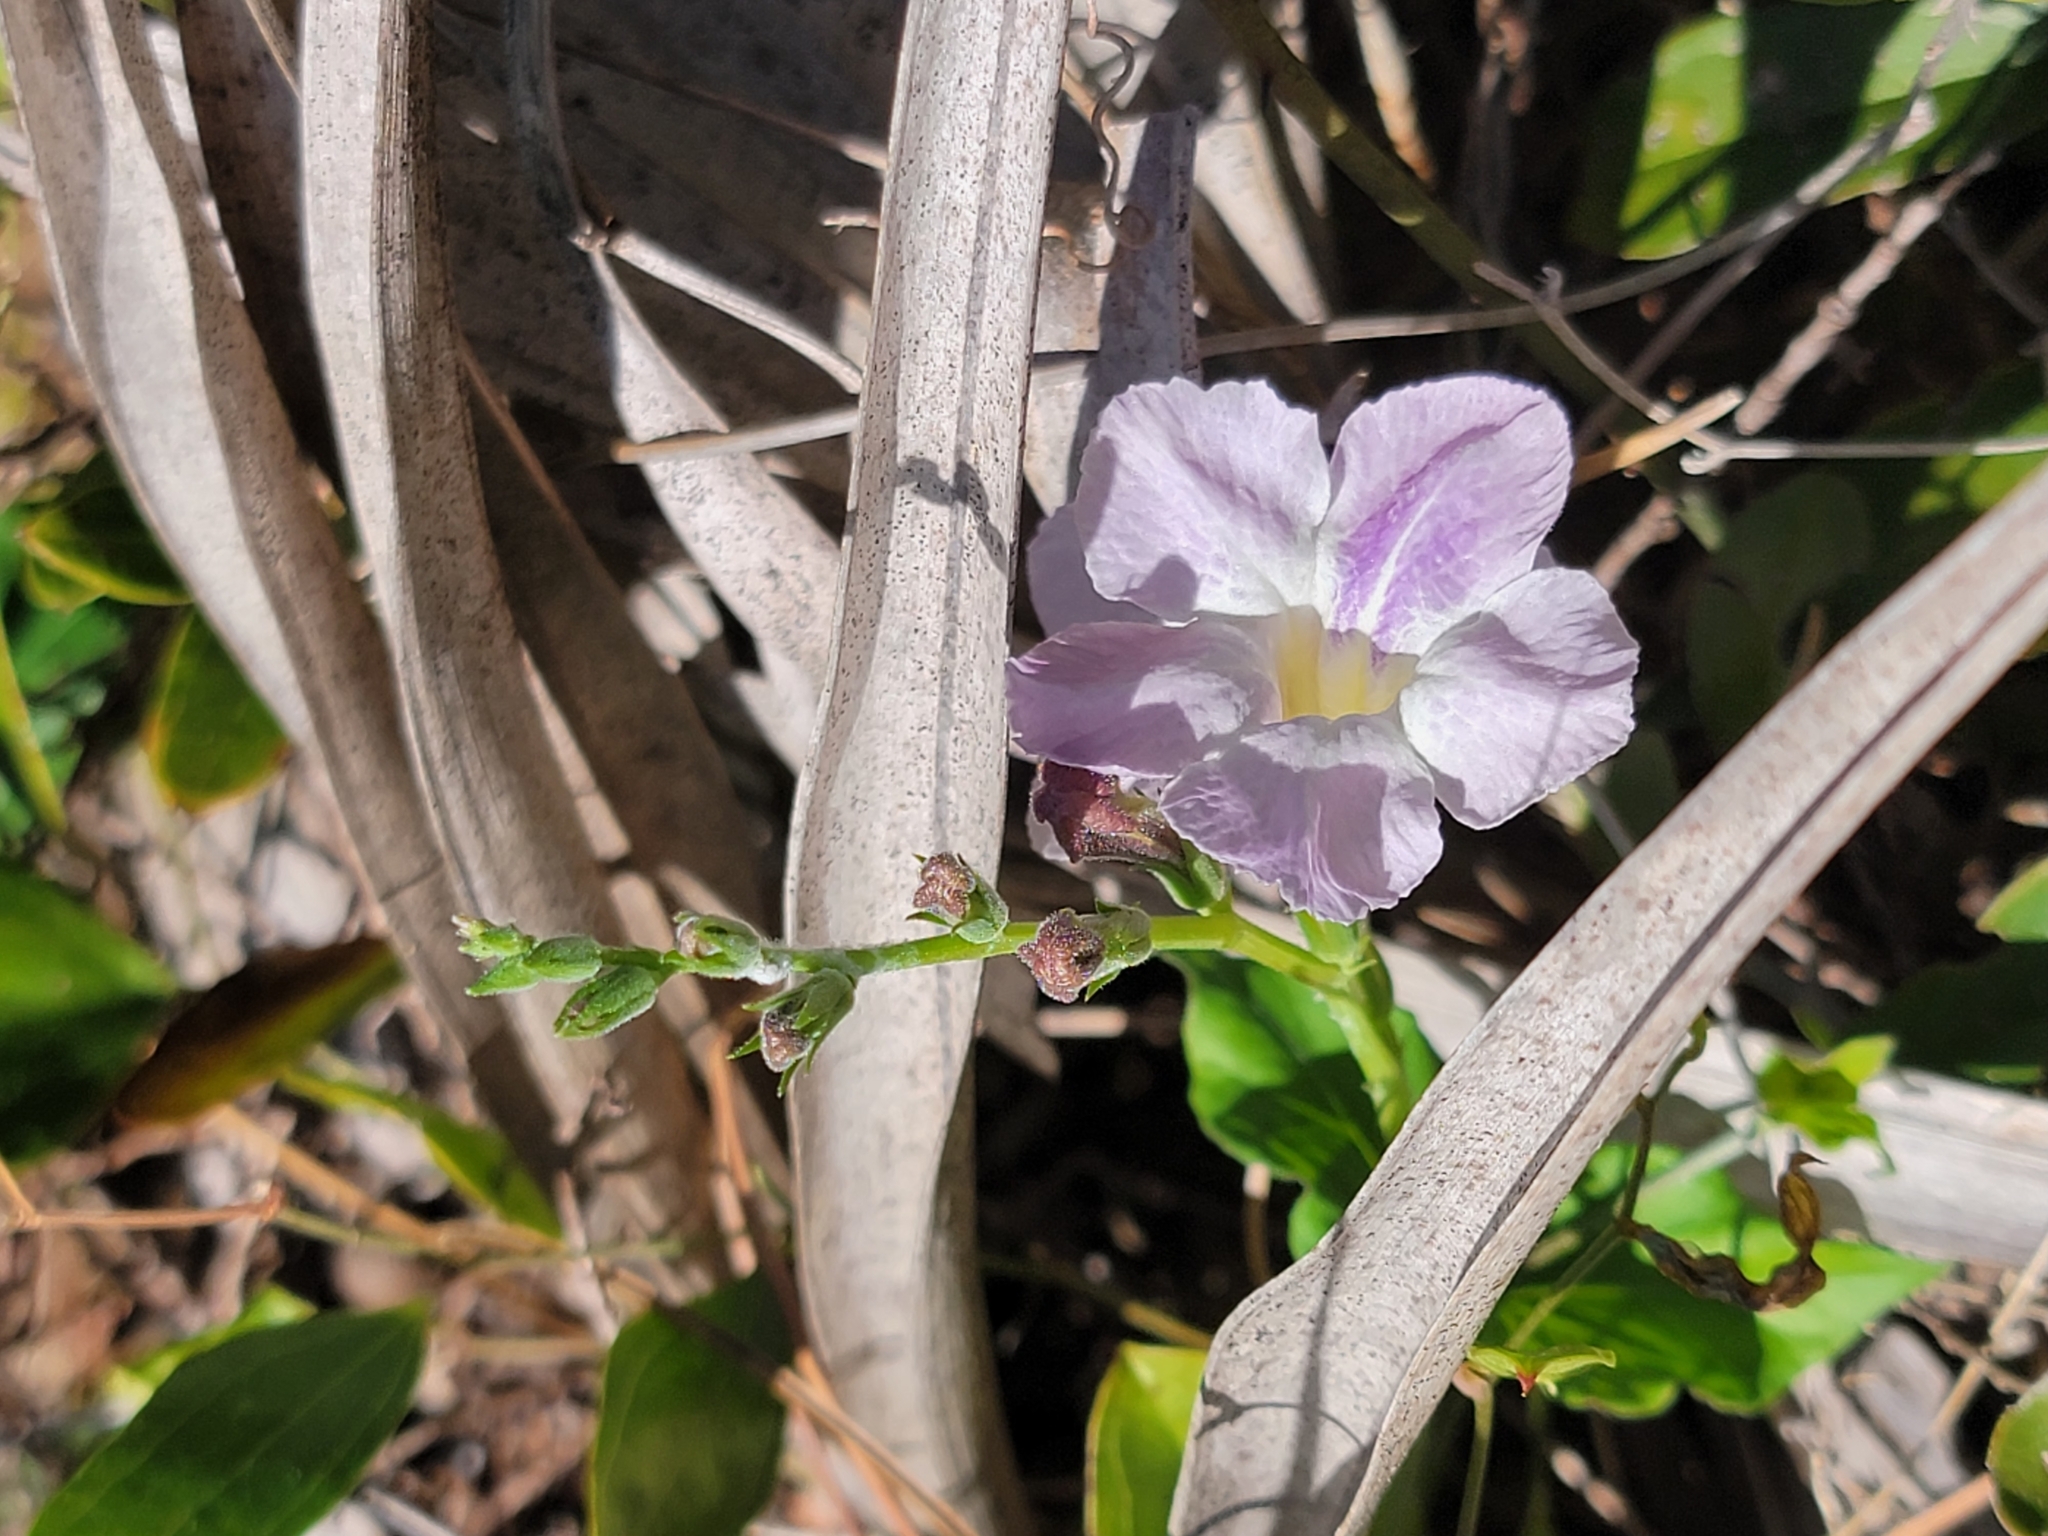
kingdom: Plantae
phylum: Tracheophyta
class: Magnoliopsida
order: Lamiales
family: Acanthaceae
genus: Asystasia
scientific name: Asystasia gangetica
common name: Chinese violet
